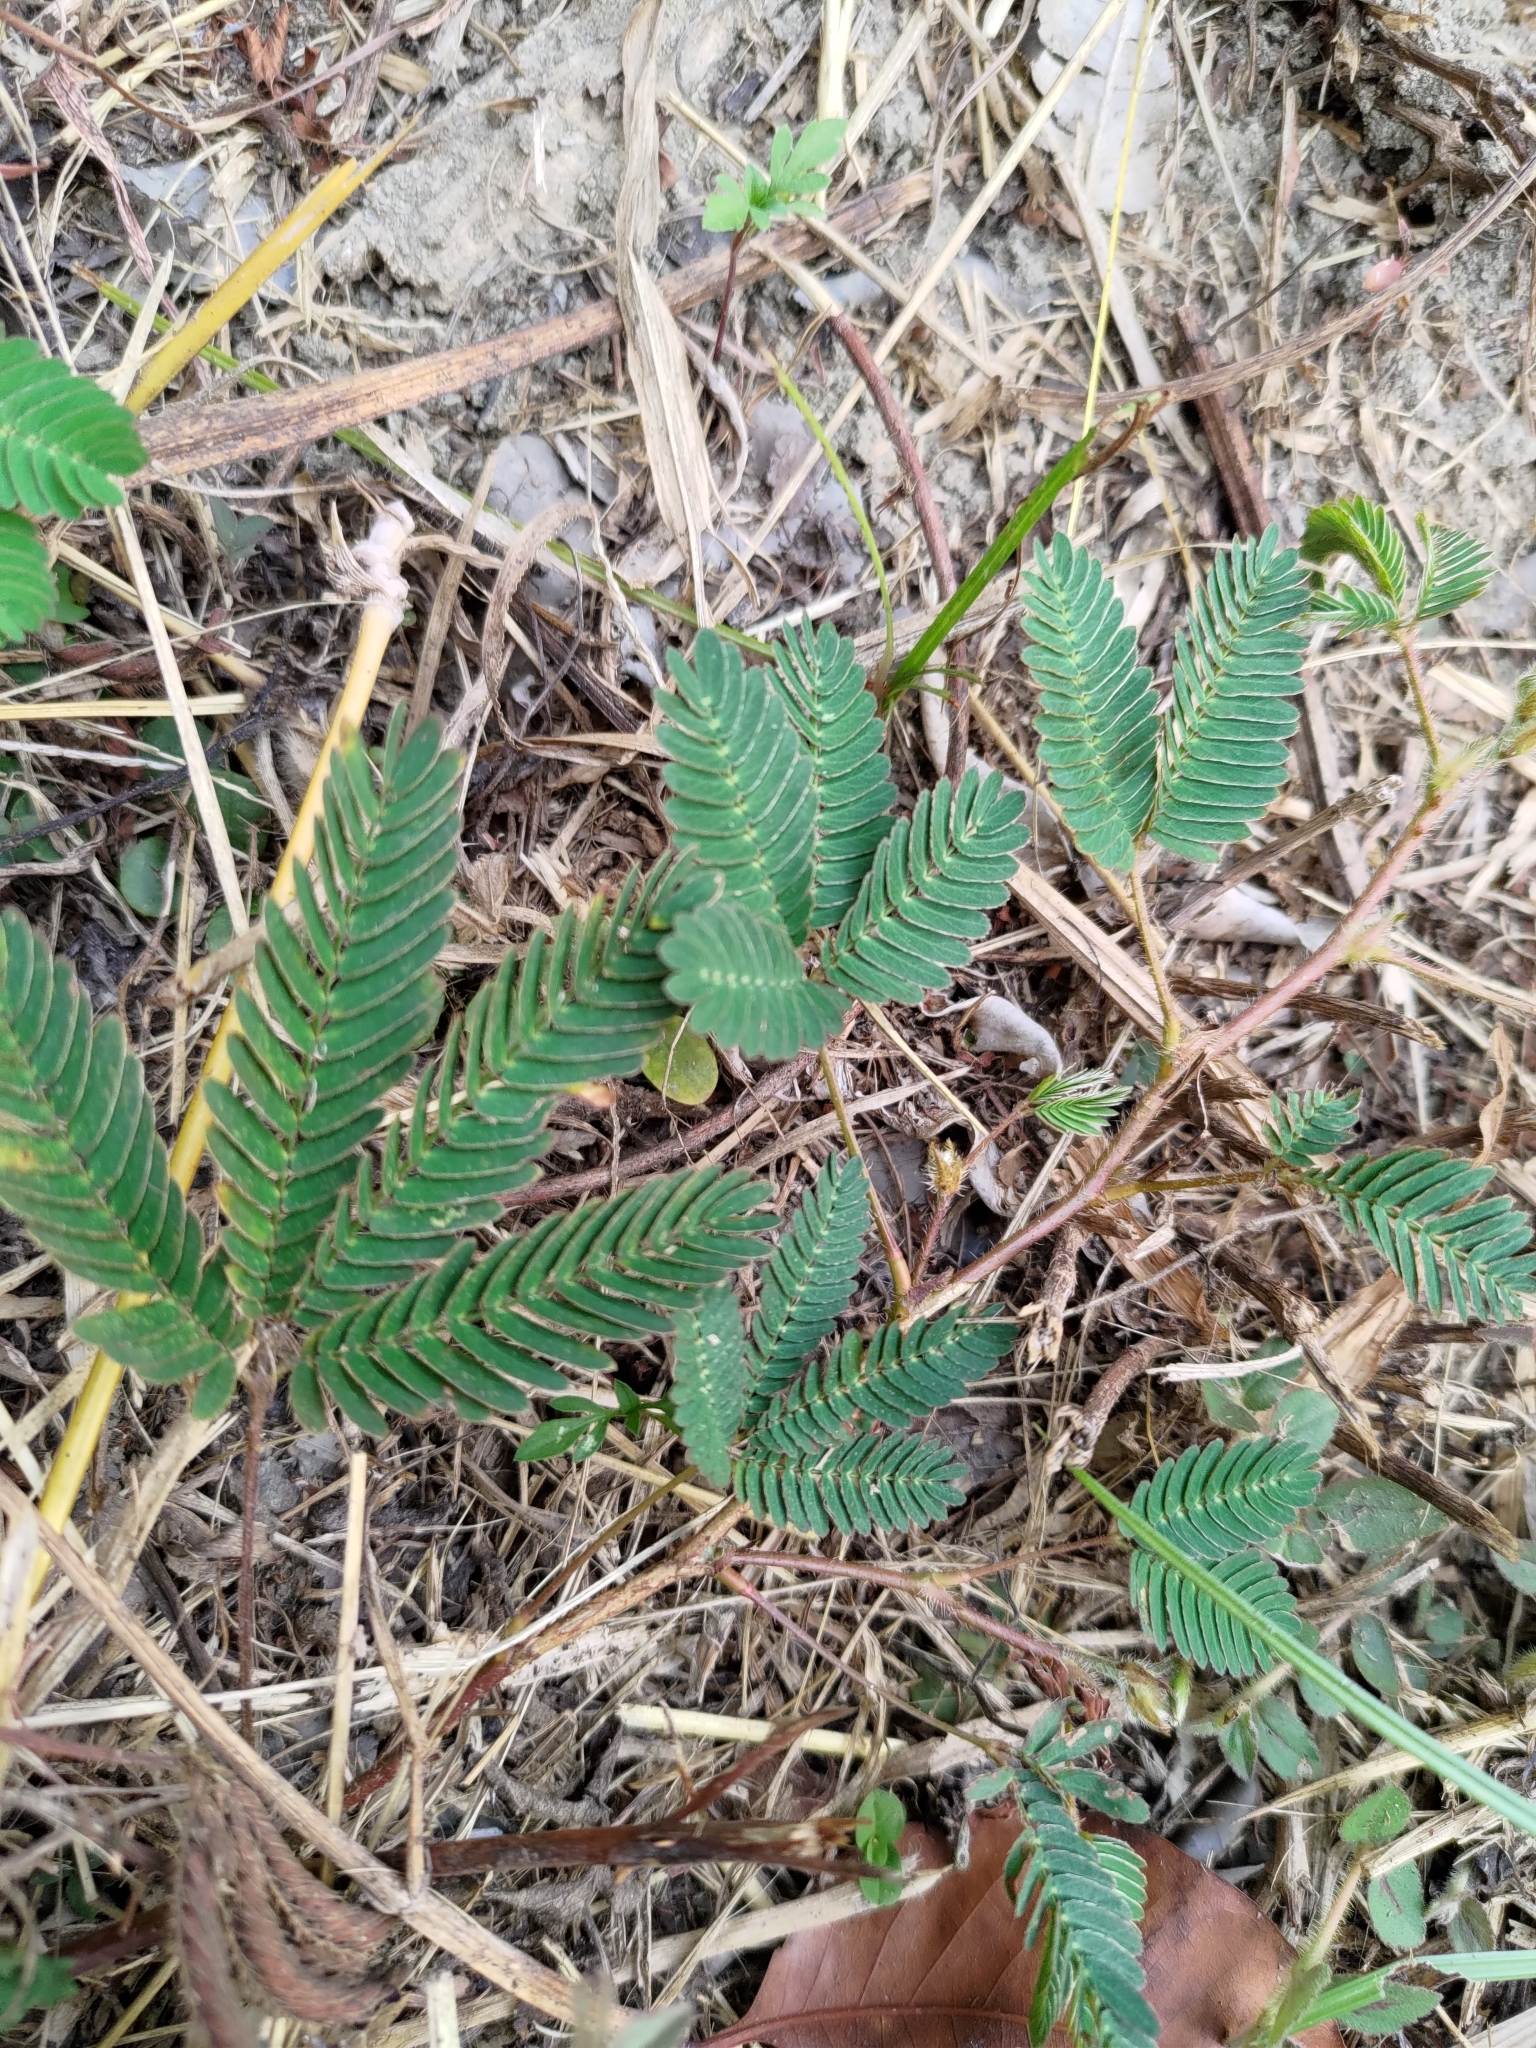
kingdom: Plantae
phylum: Tracheophyta
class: Magnoliopsida
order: Fabales
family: Fabaceae
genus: Mimosa
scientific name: Mimosa pudica
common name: Sensitive plant
